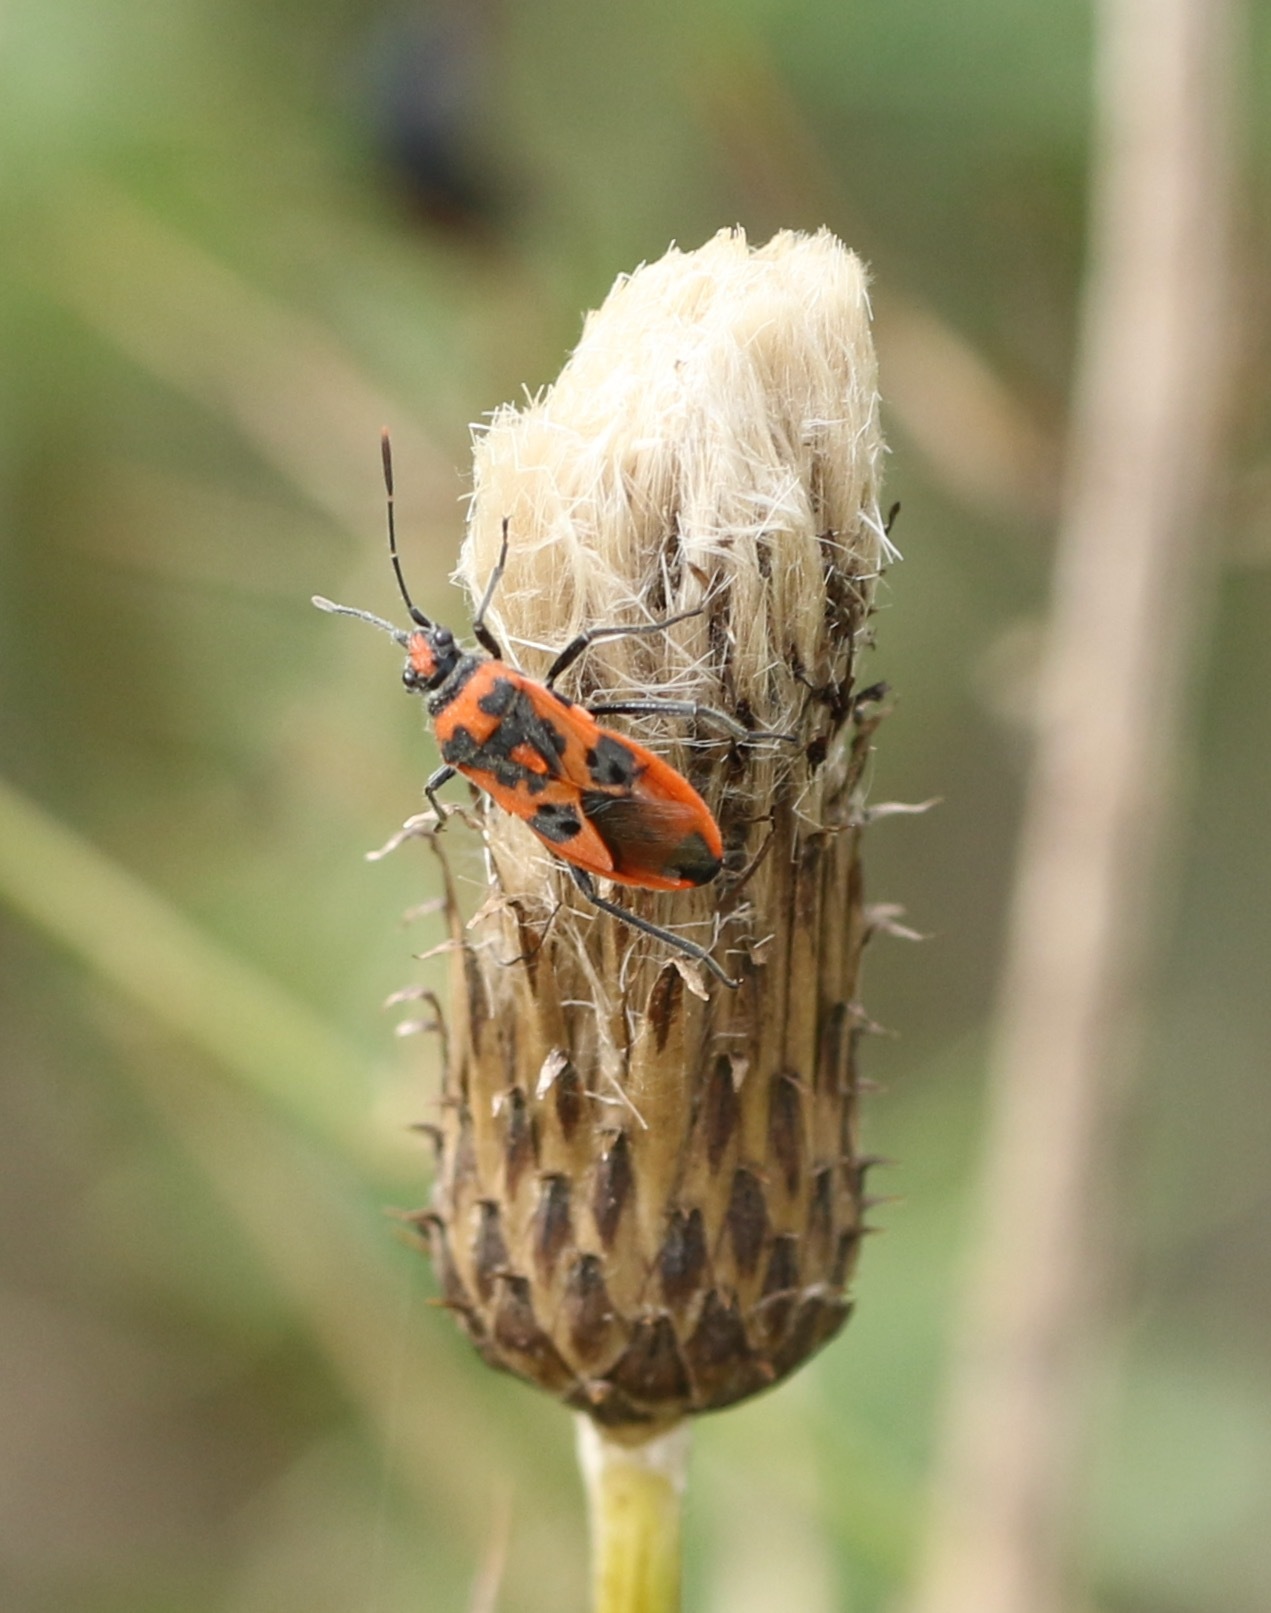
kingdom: Animalia
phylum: Arthropoda
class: Insecta
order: Hemiptera
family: Rhopalidae
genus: Corizus
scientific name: Corizus hyoscyami
